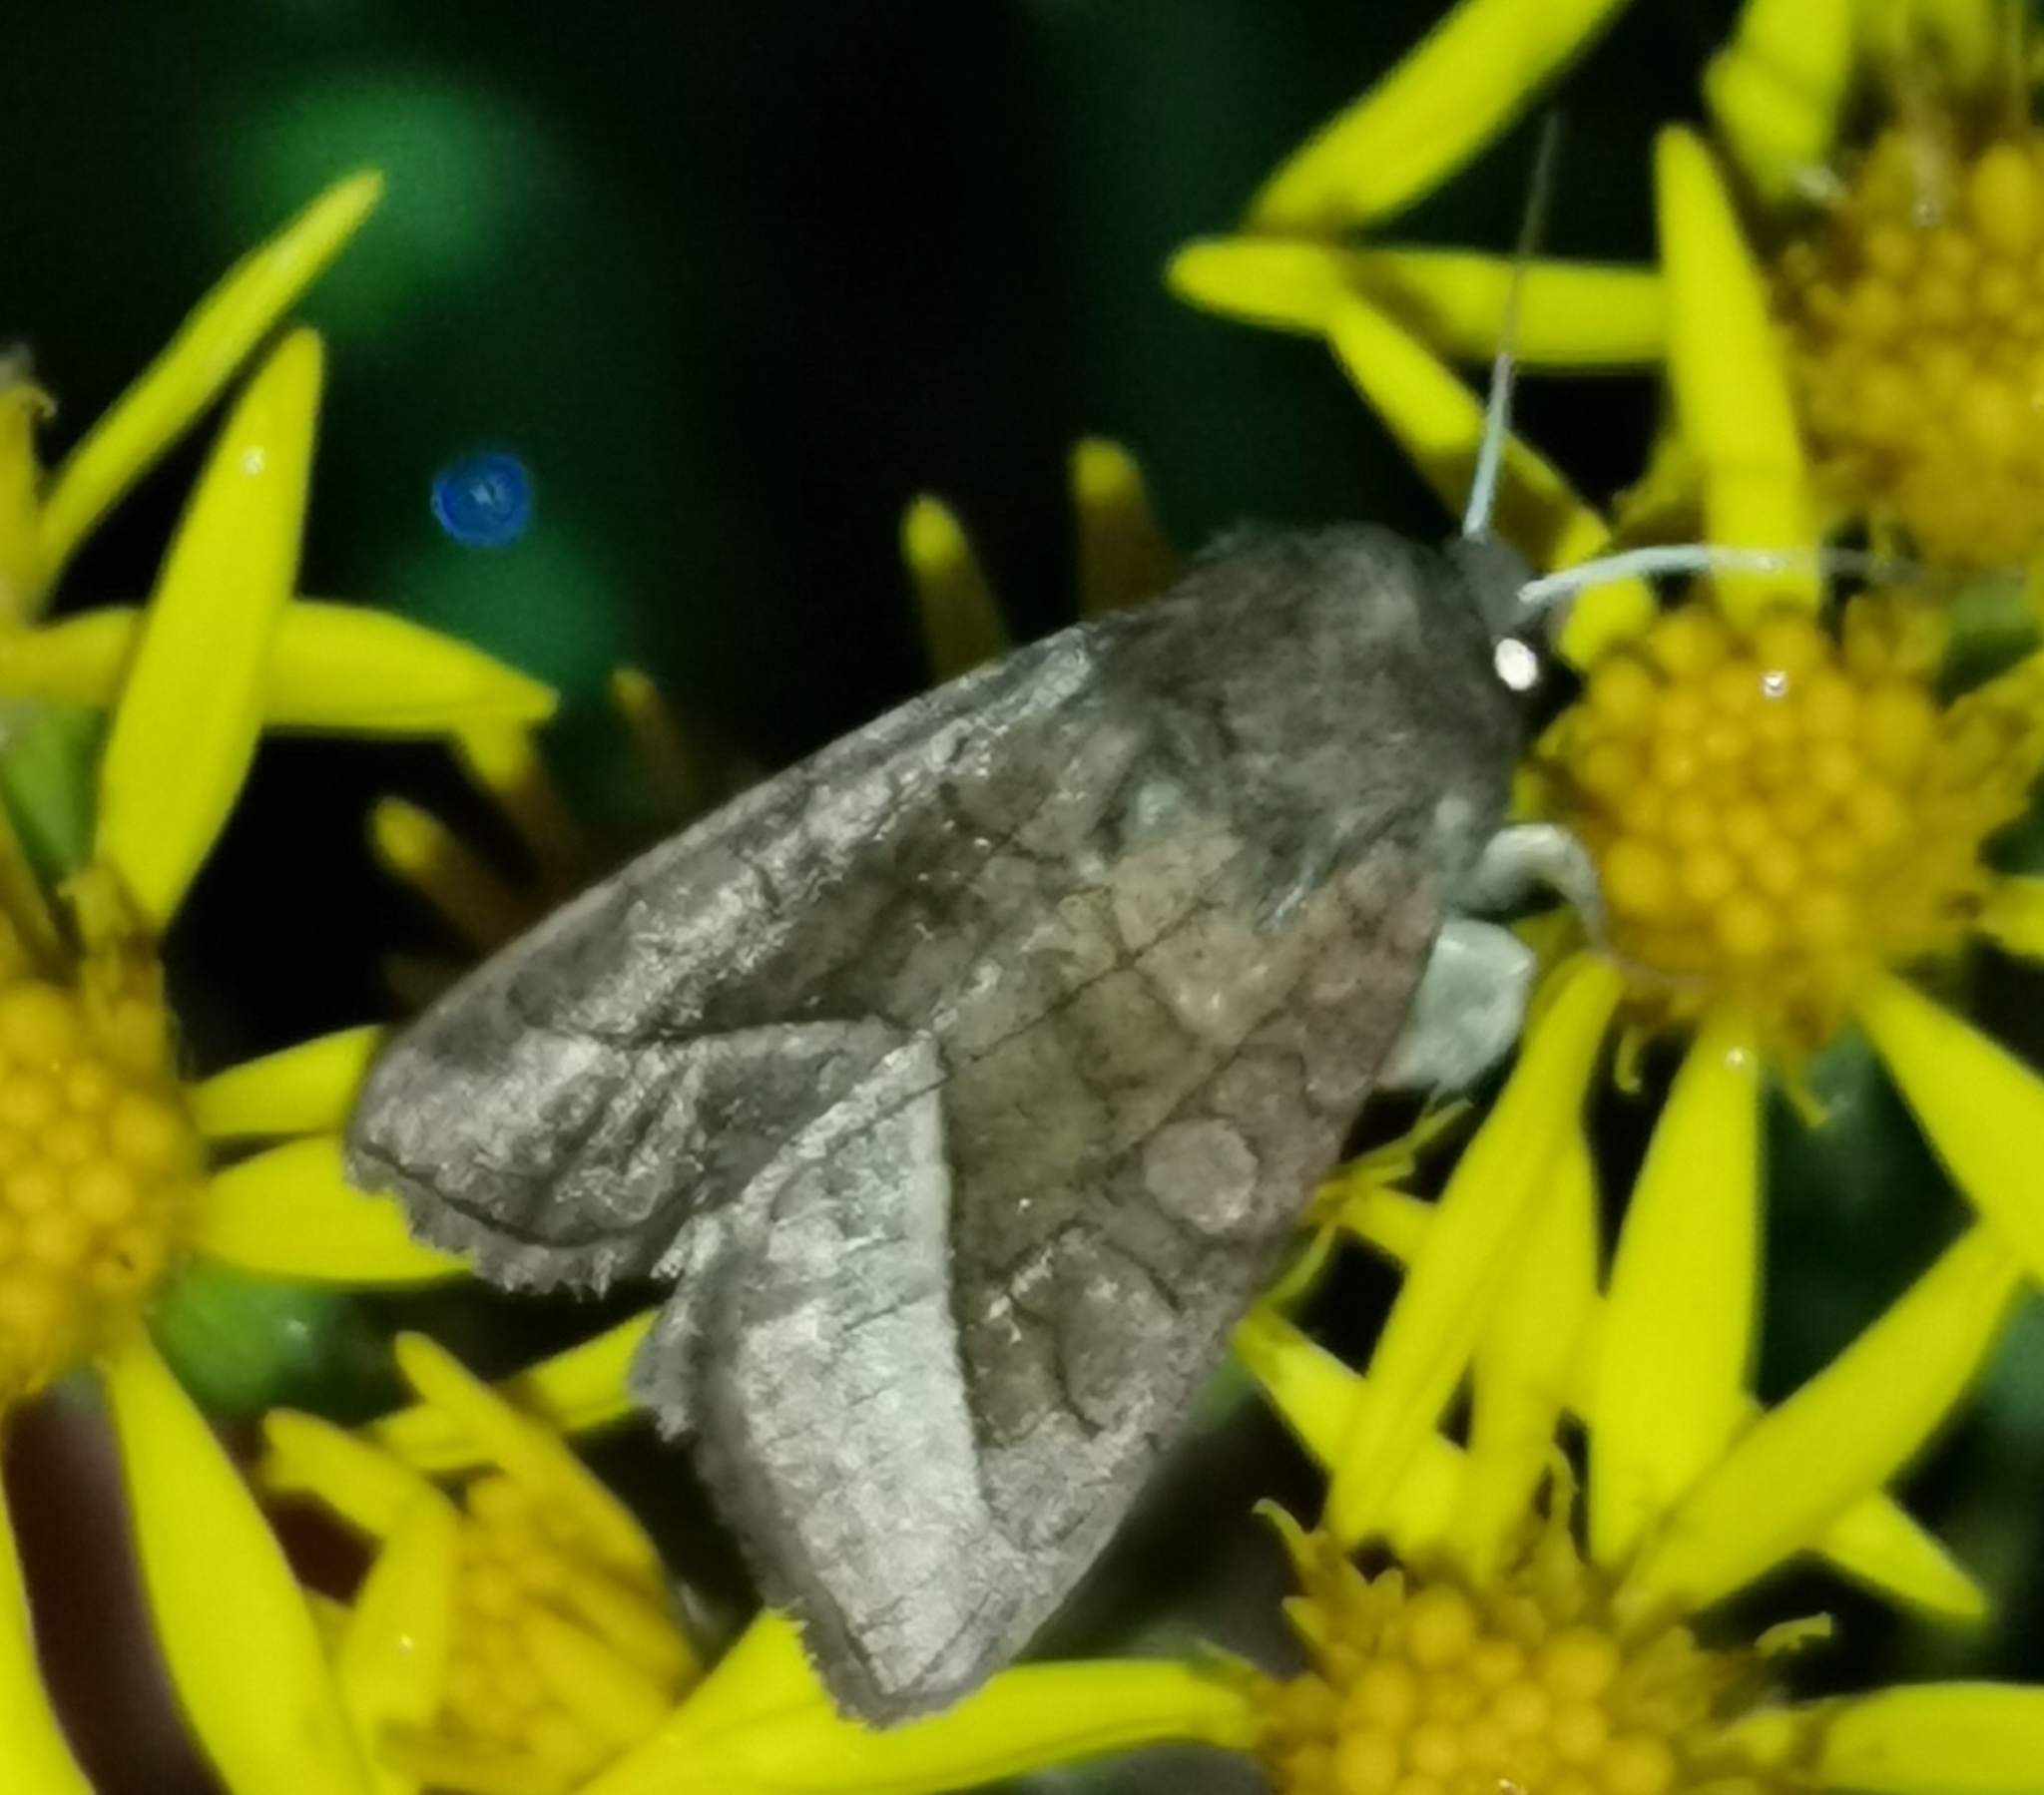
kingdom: Animalia
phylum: Arthropoda
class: Insecta
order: Lepidoptera
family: Noctuidae
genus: Hydraecia
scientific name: Hydraecia micacea
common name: Rosy rustic
